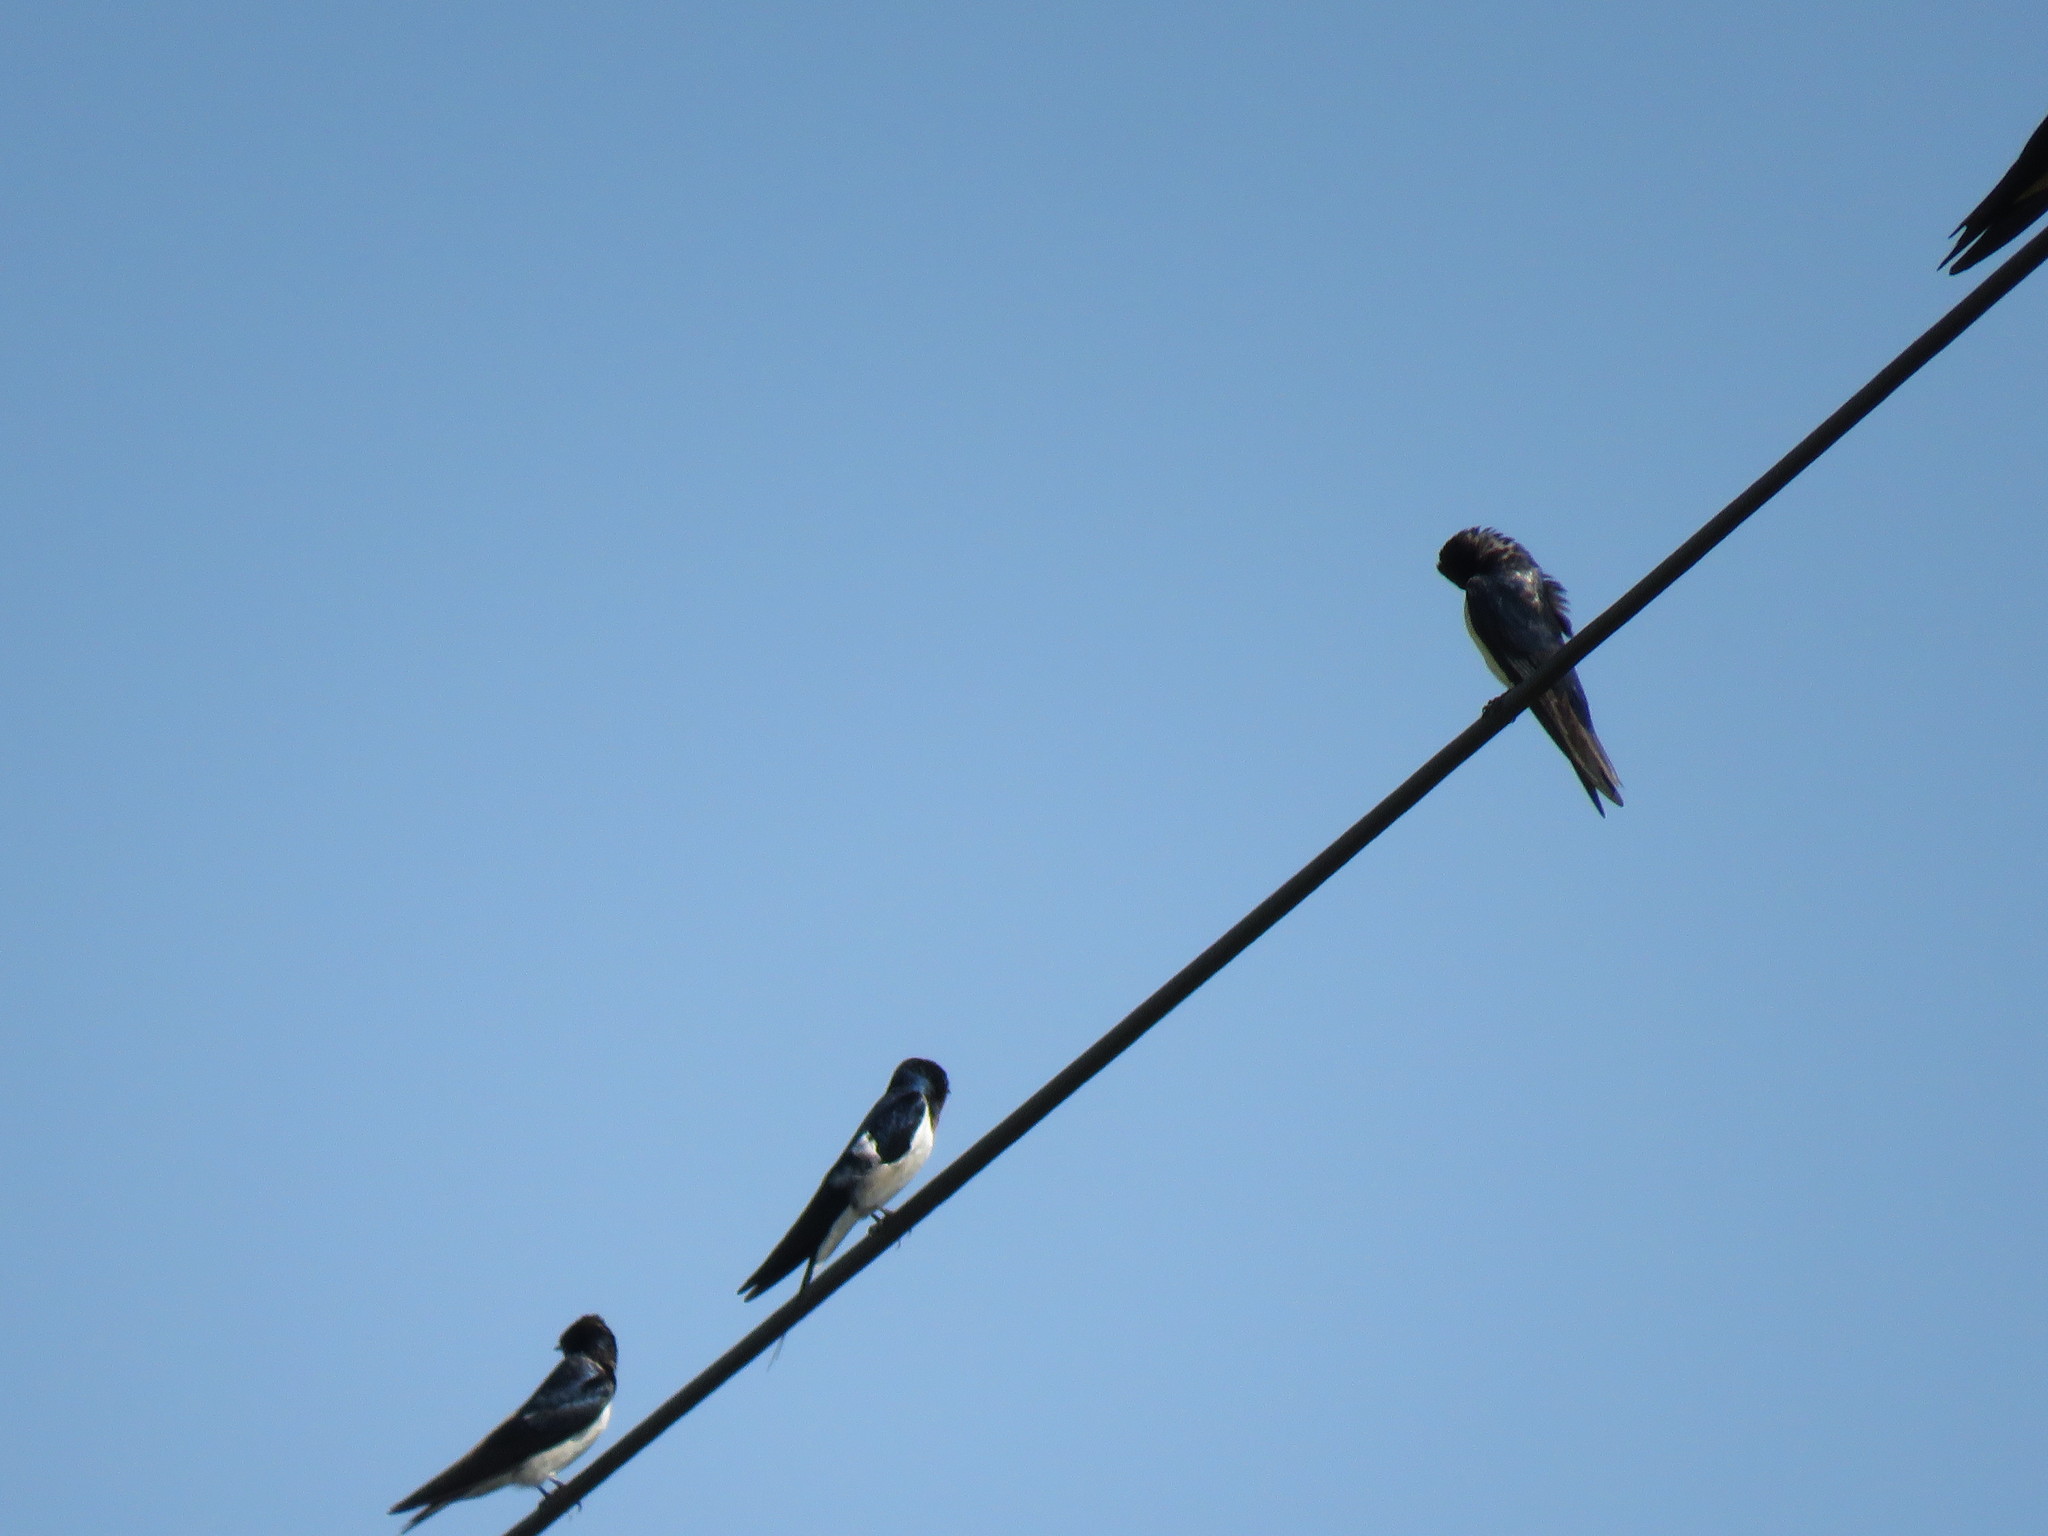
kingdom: Animalia
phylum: Chordata
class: Aves
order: Passeriformes
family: Hirundinidae
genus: Hirundo
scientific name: Hirundo rustica
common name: Barn swallow
